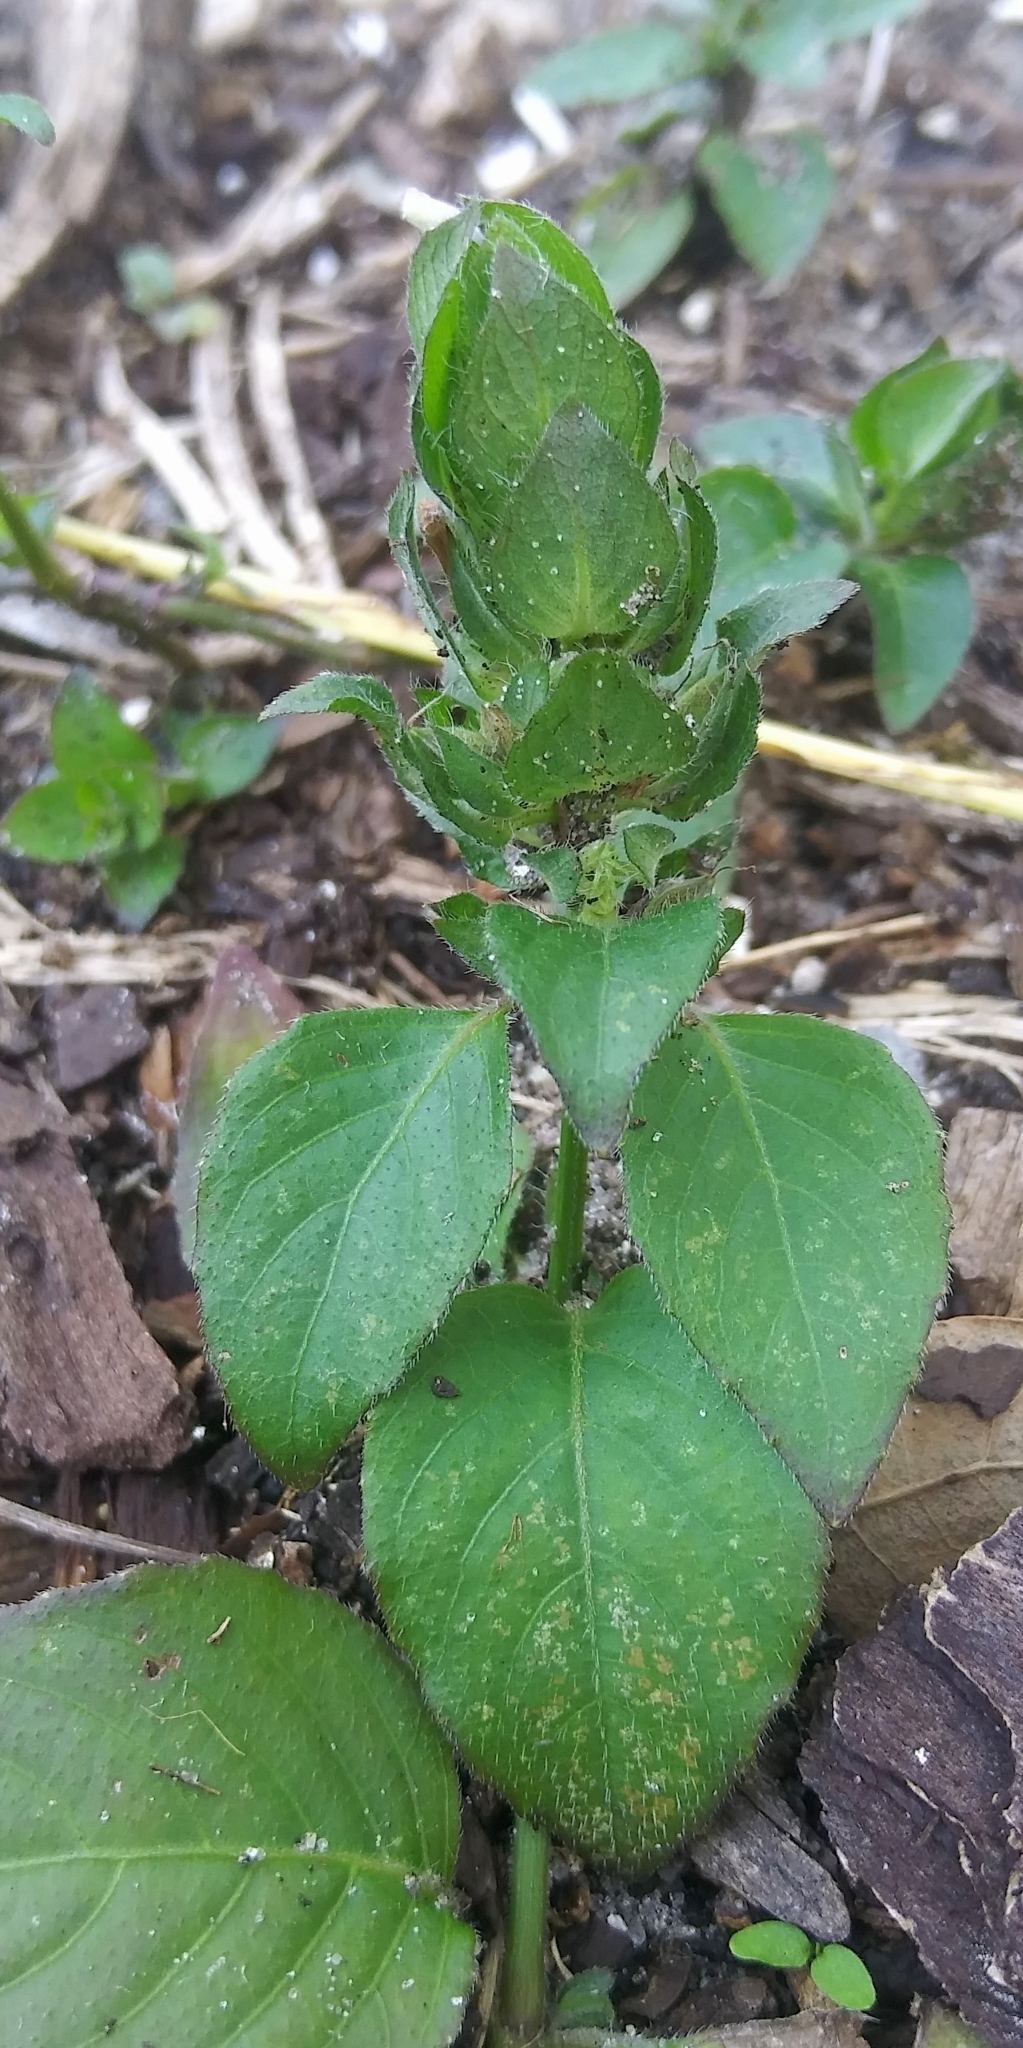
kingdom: Plantae
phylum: Tracheophyta
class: Magnoliopsida
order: Lamiales
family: Acanthaceae
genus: Ruellia
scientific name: Ruellia blechum
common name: Browne's blechum
